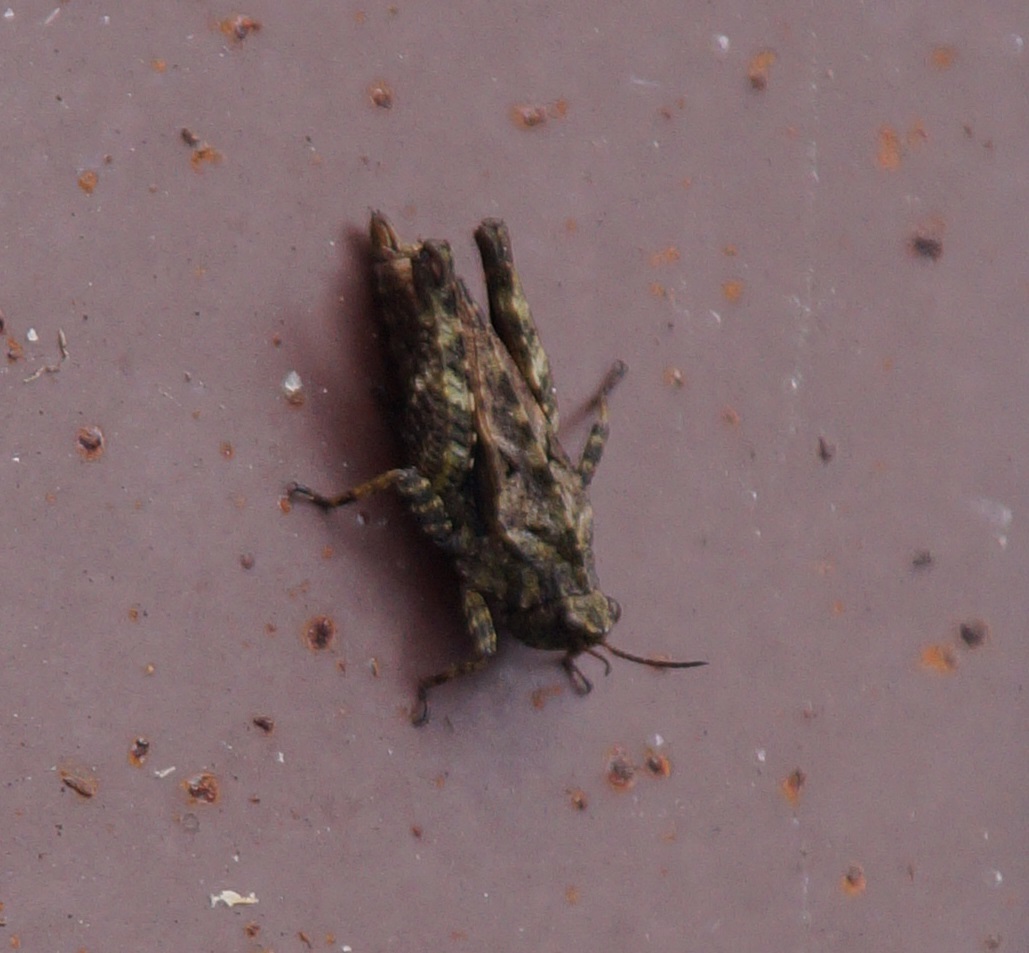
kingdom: Animalia
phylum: Arthropoda
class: Insecta
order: Orthoptera
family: Tetrigidae
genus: Tetrix
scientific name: Tetrix undulata
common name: Common groundhopper
